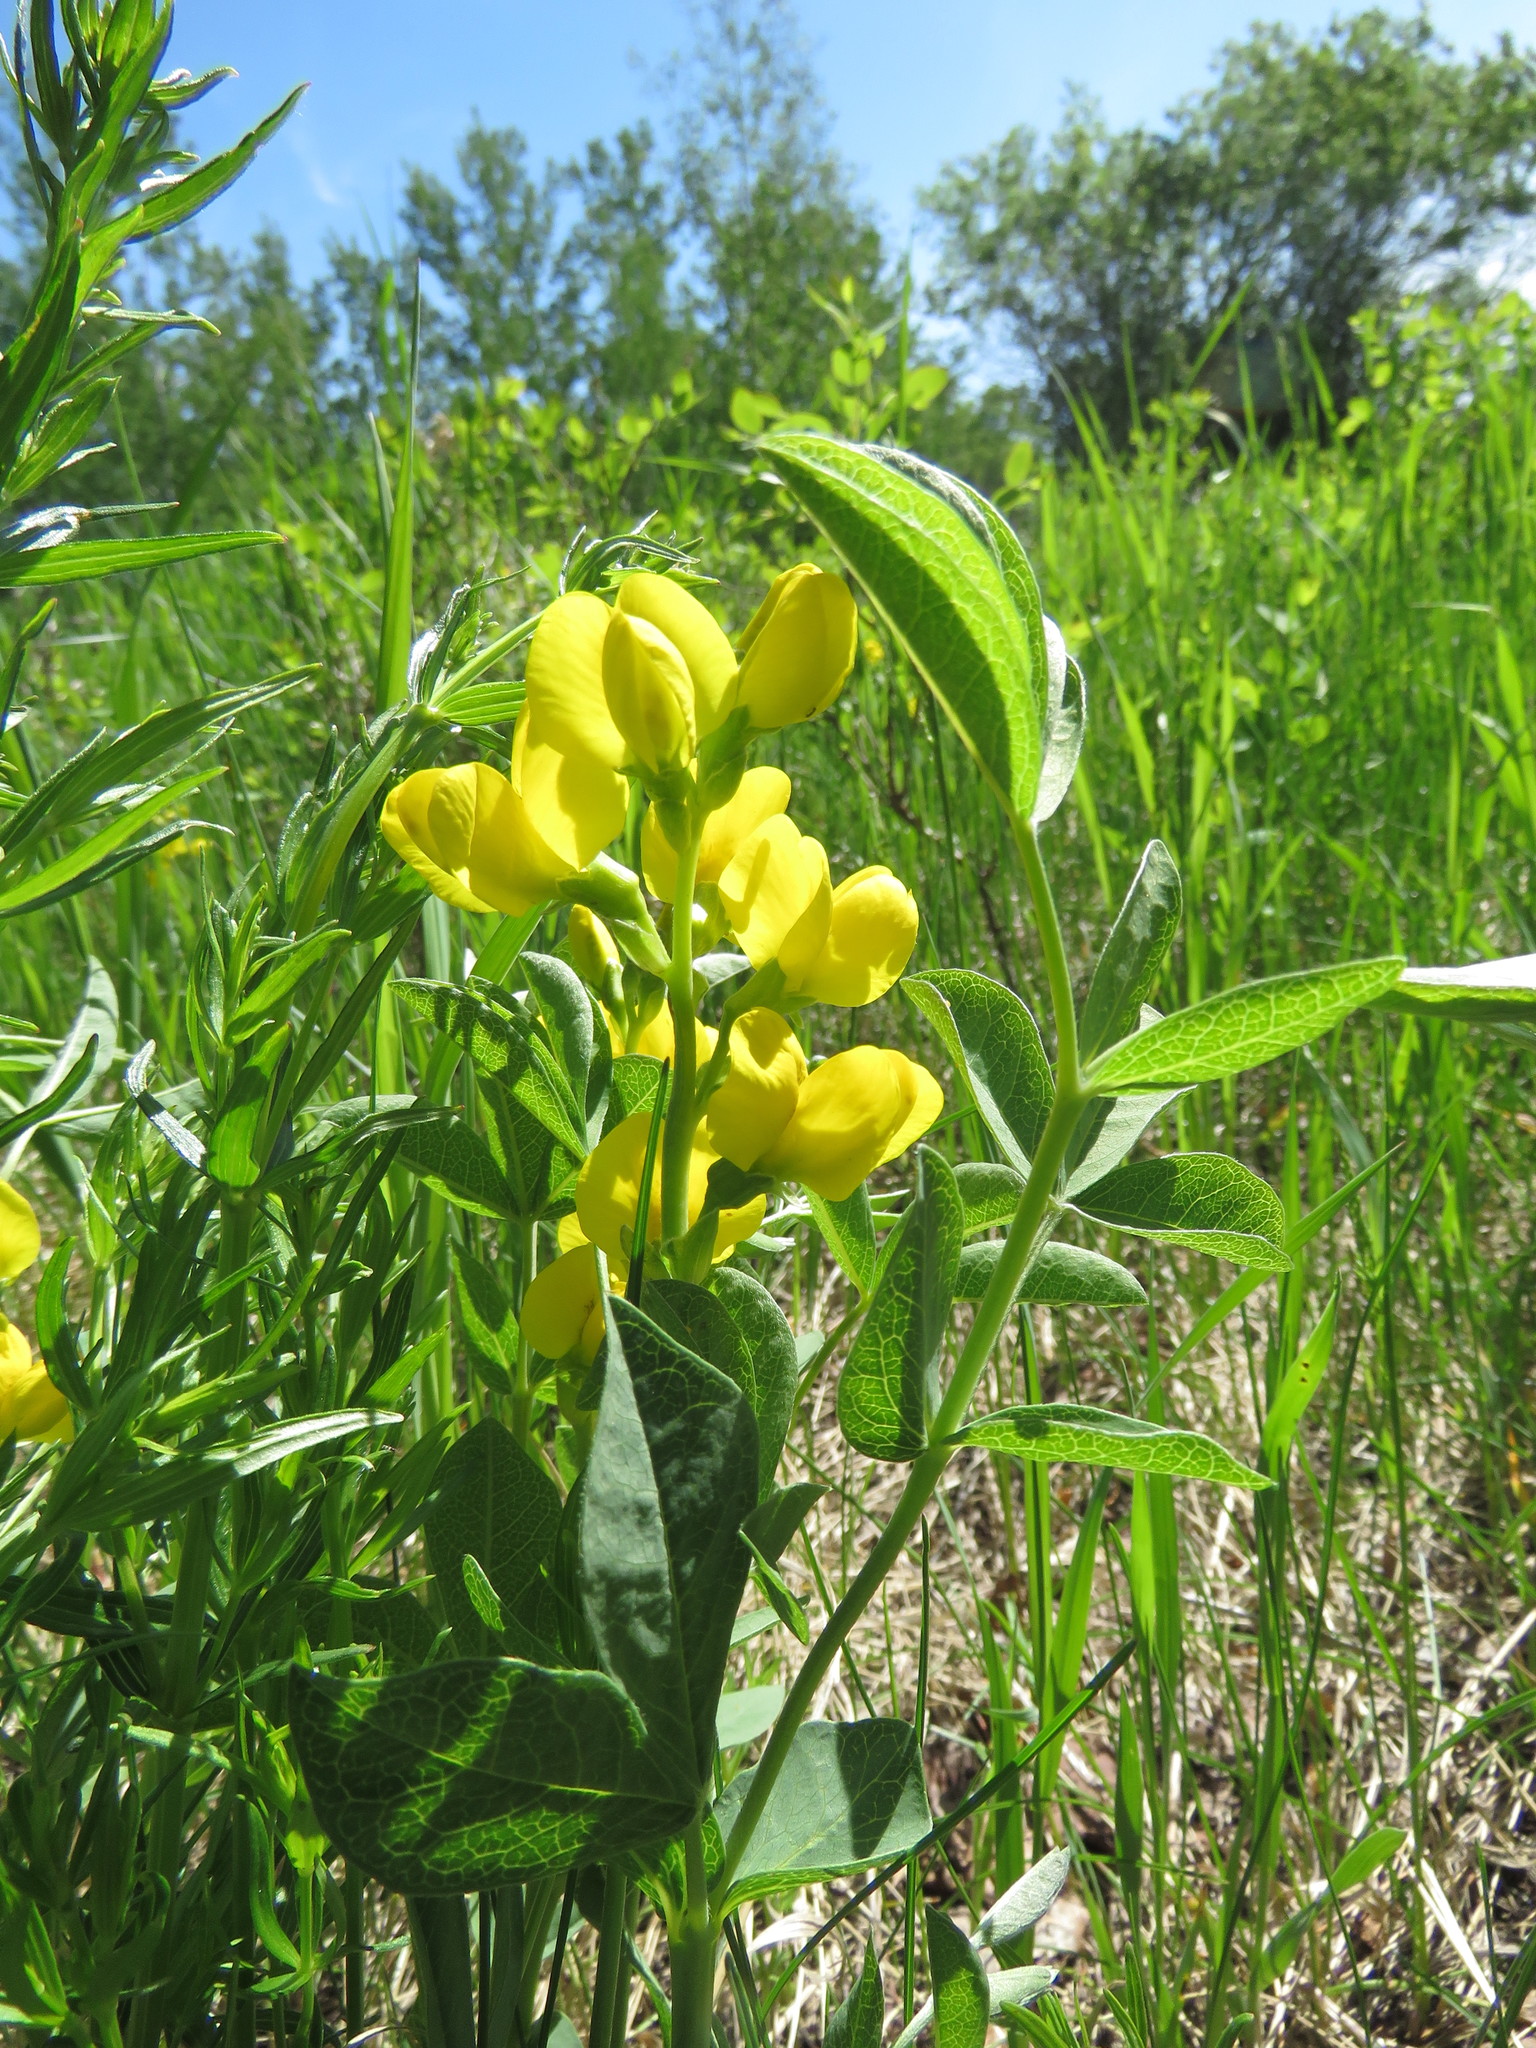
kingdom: Plantae
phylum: Tracheophyta
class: Magnoliopsida
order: Fabales
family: Fabaceae
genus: Thermopsis
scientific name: Thermopsis rhombifolia
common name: Circle-pod-pea
